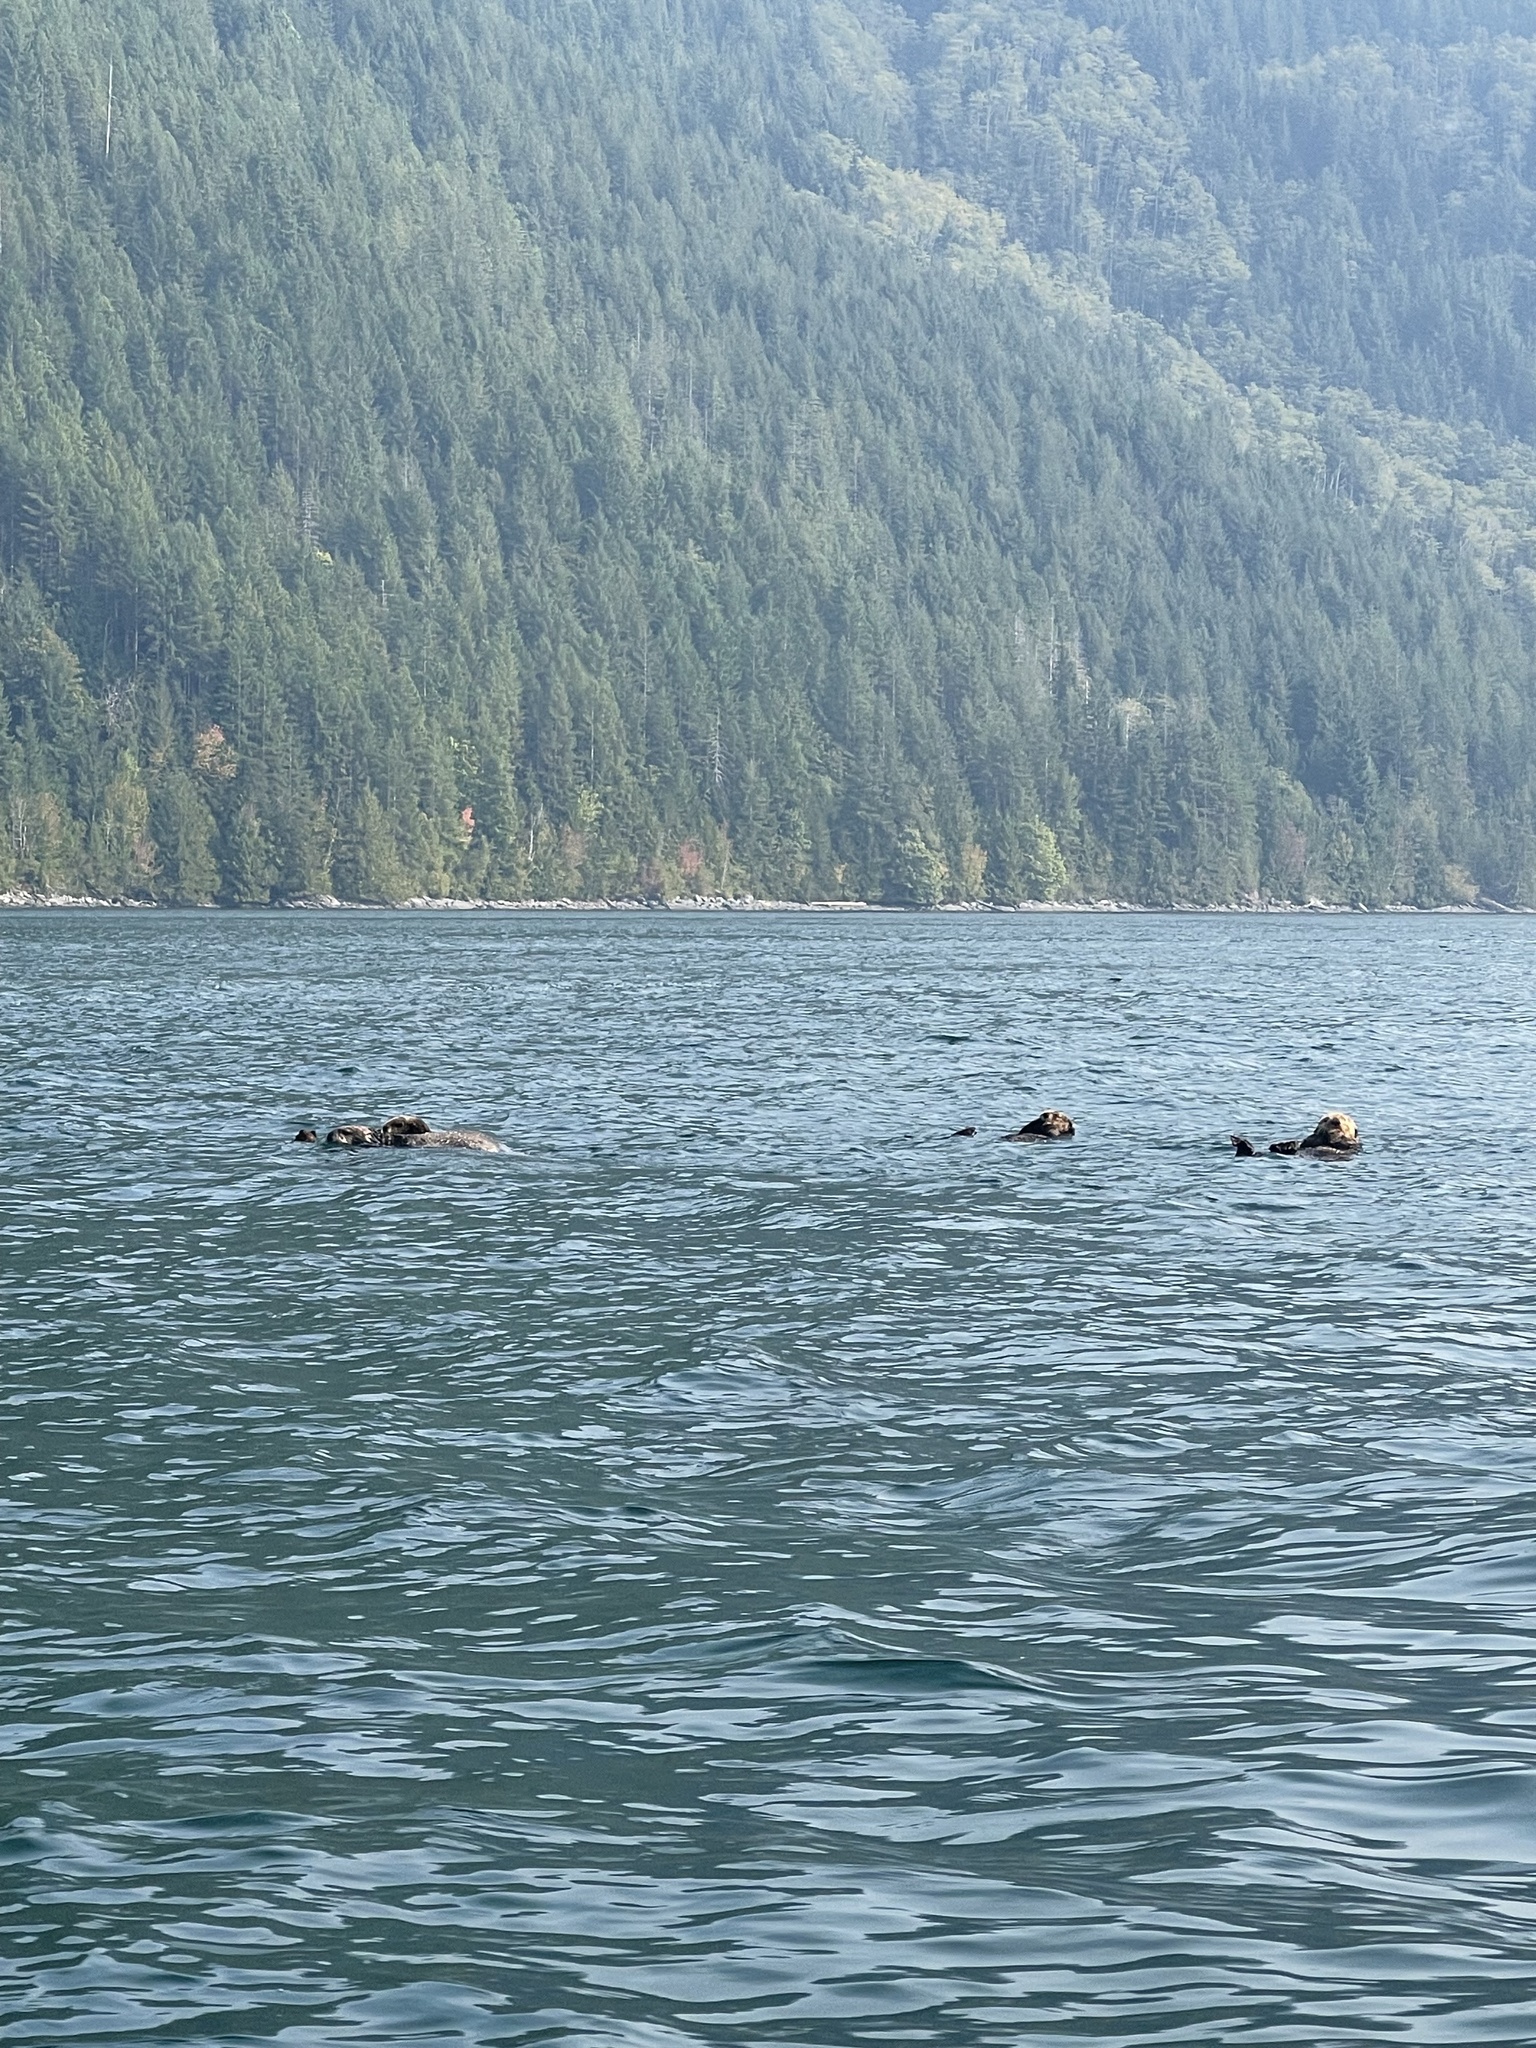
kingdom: Animalia
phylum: Chordata
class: Mammalia
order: Carnivora
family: Mustelidae
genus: Enhydra
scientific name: Enhydra lutris
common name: Sea otter
